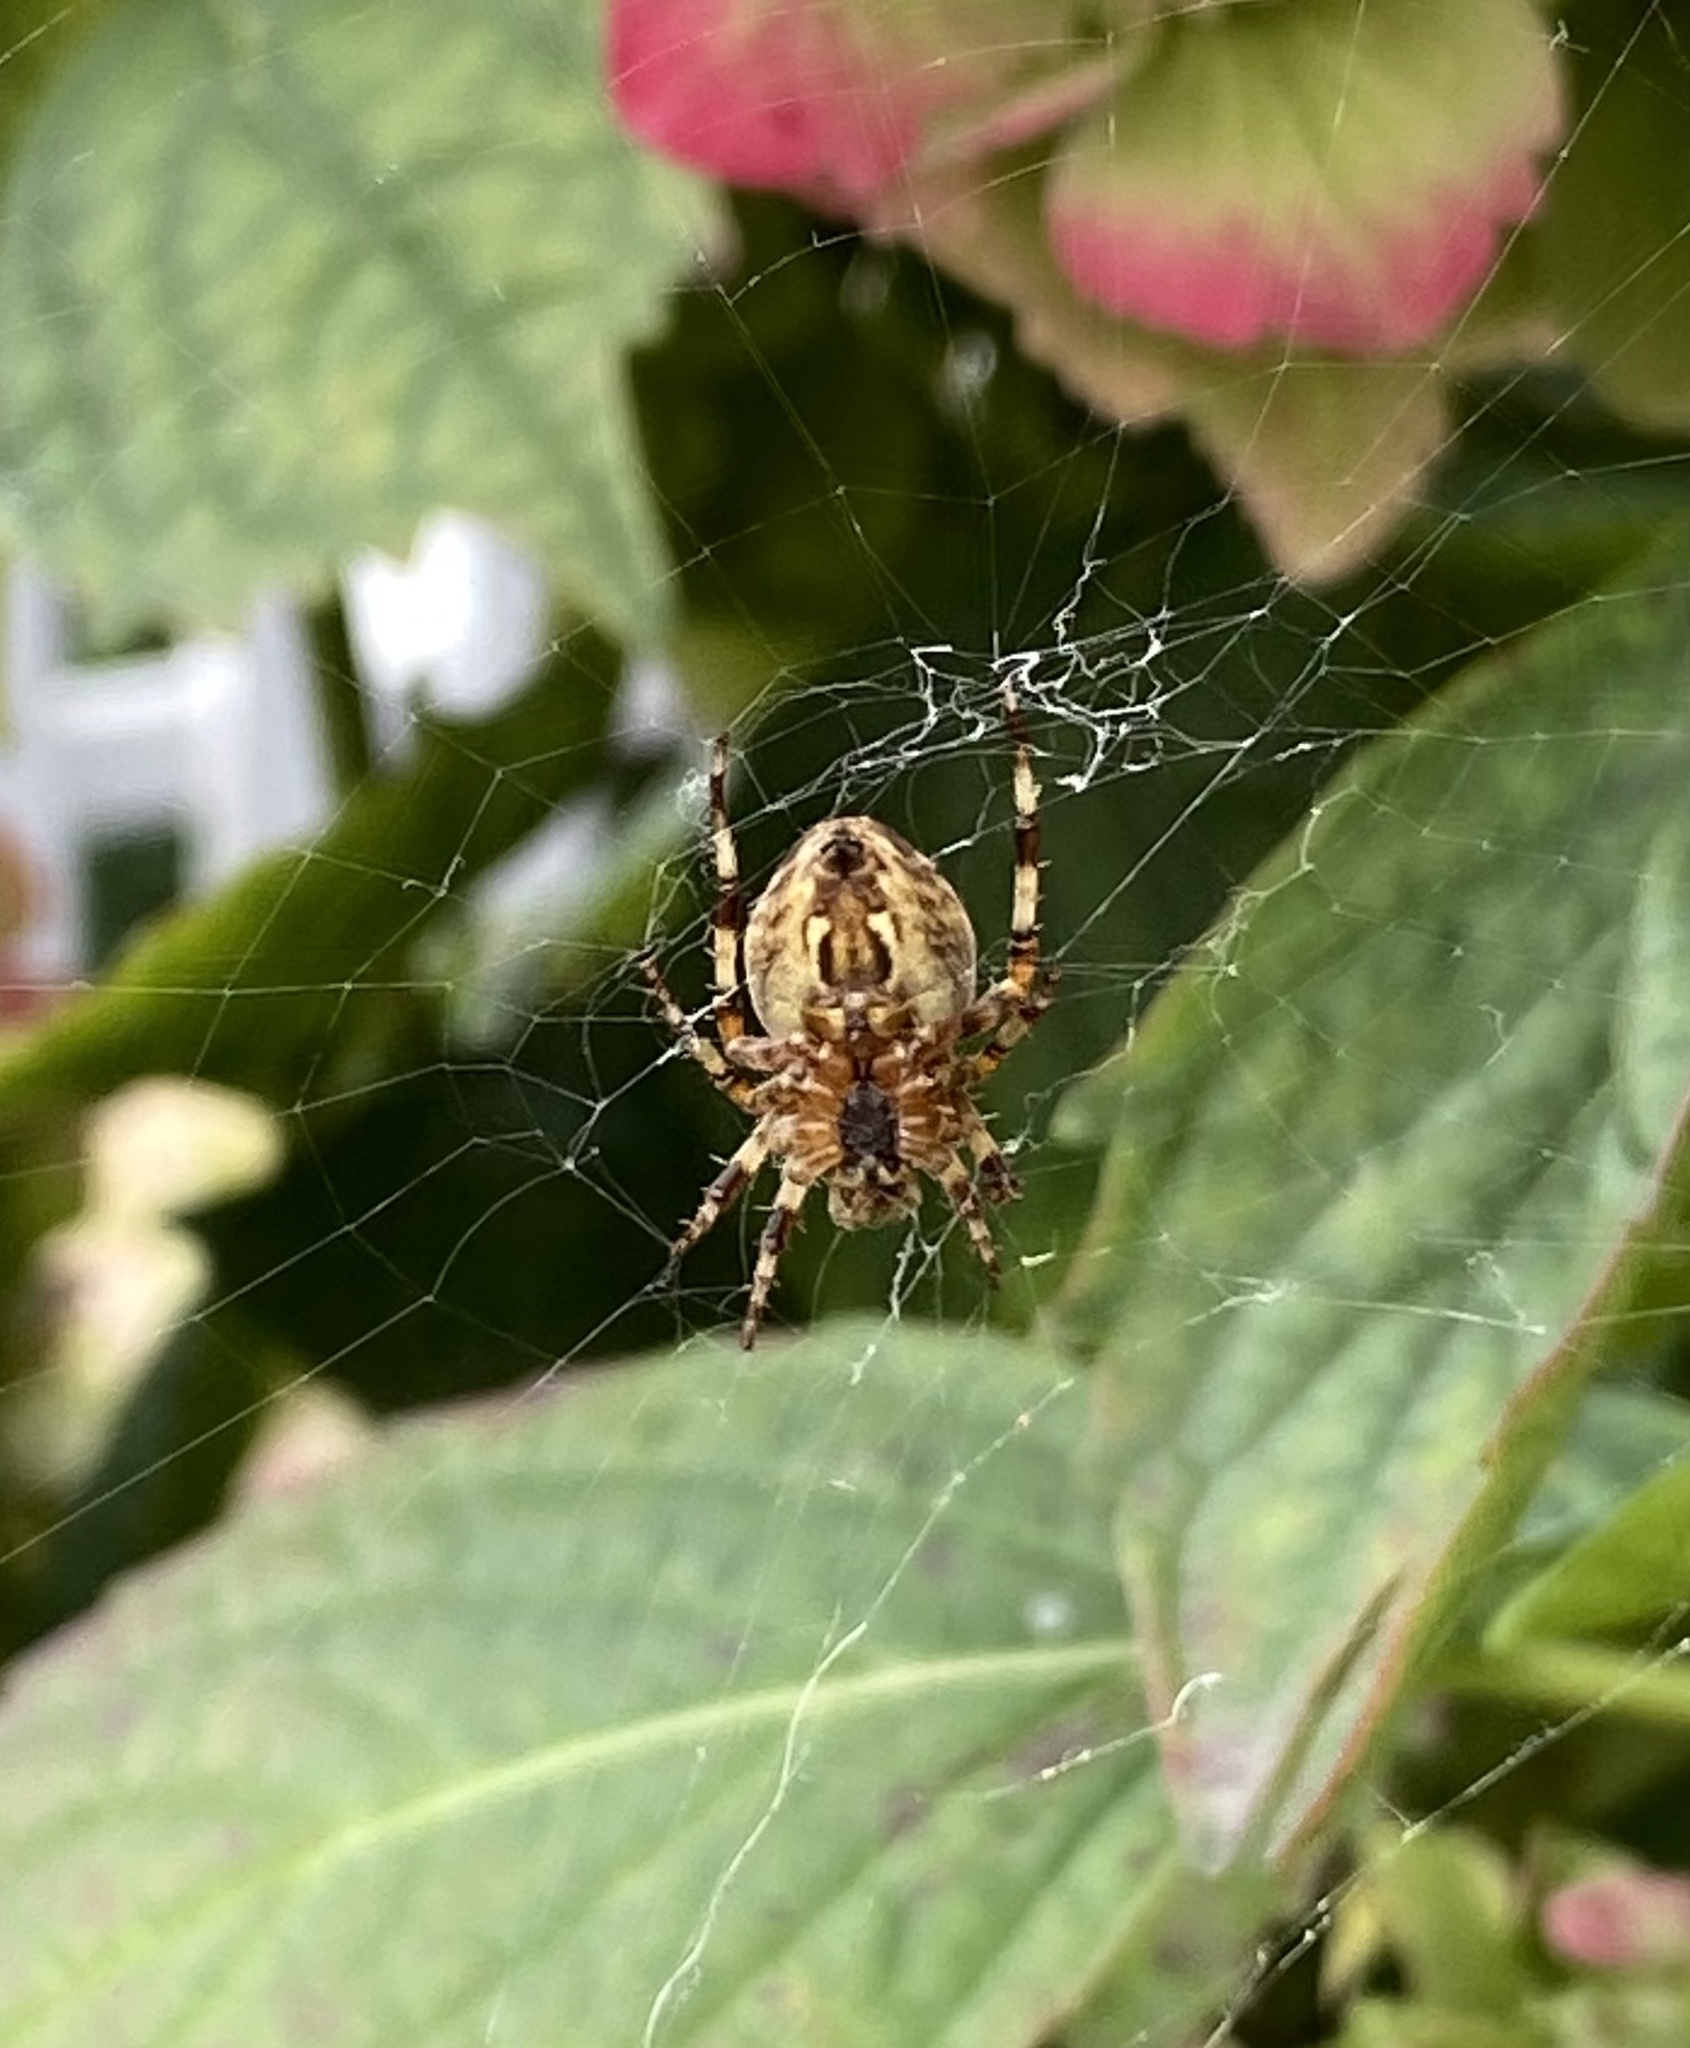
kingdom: Animalia
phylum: Arthropoda
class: Arachnida
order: Araneae
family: Araneidae
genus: Araneus
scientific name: Araneus diadematus
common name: Cross orbweaver
